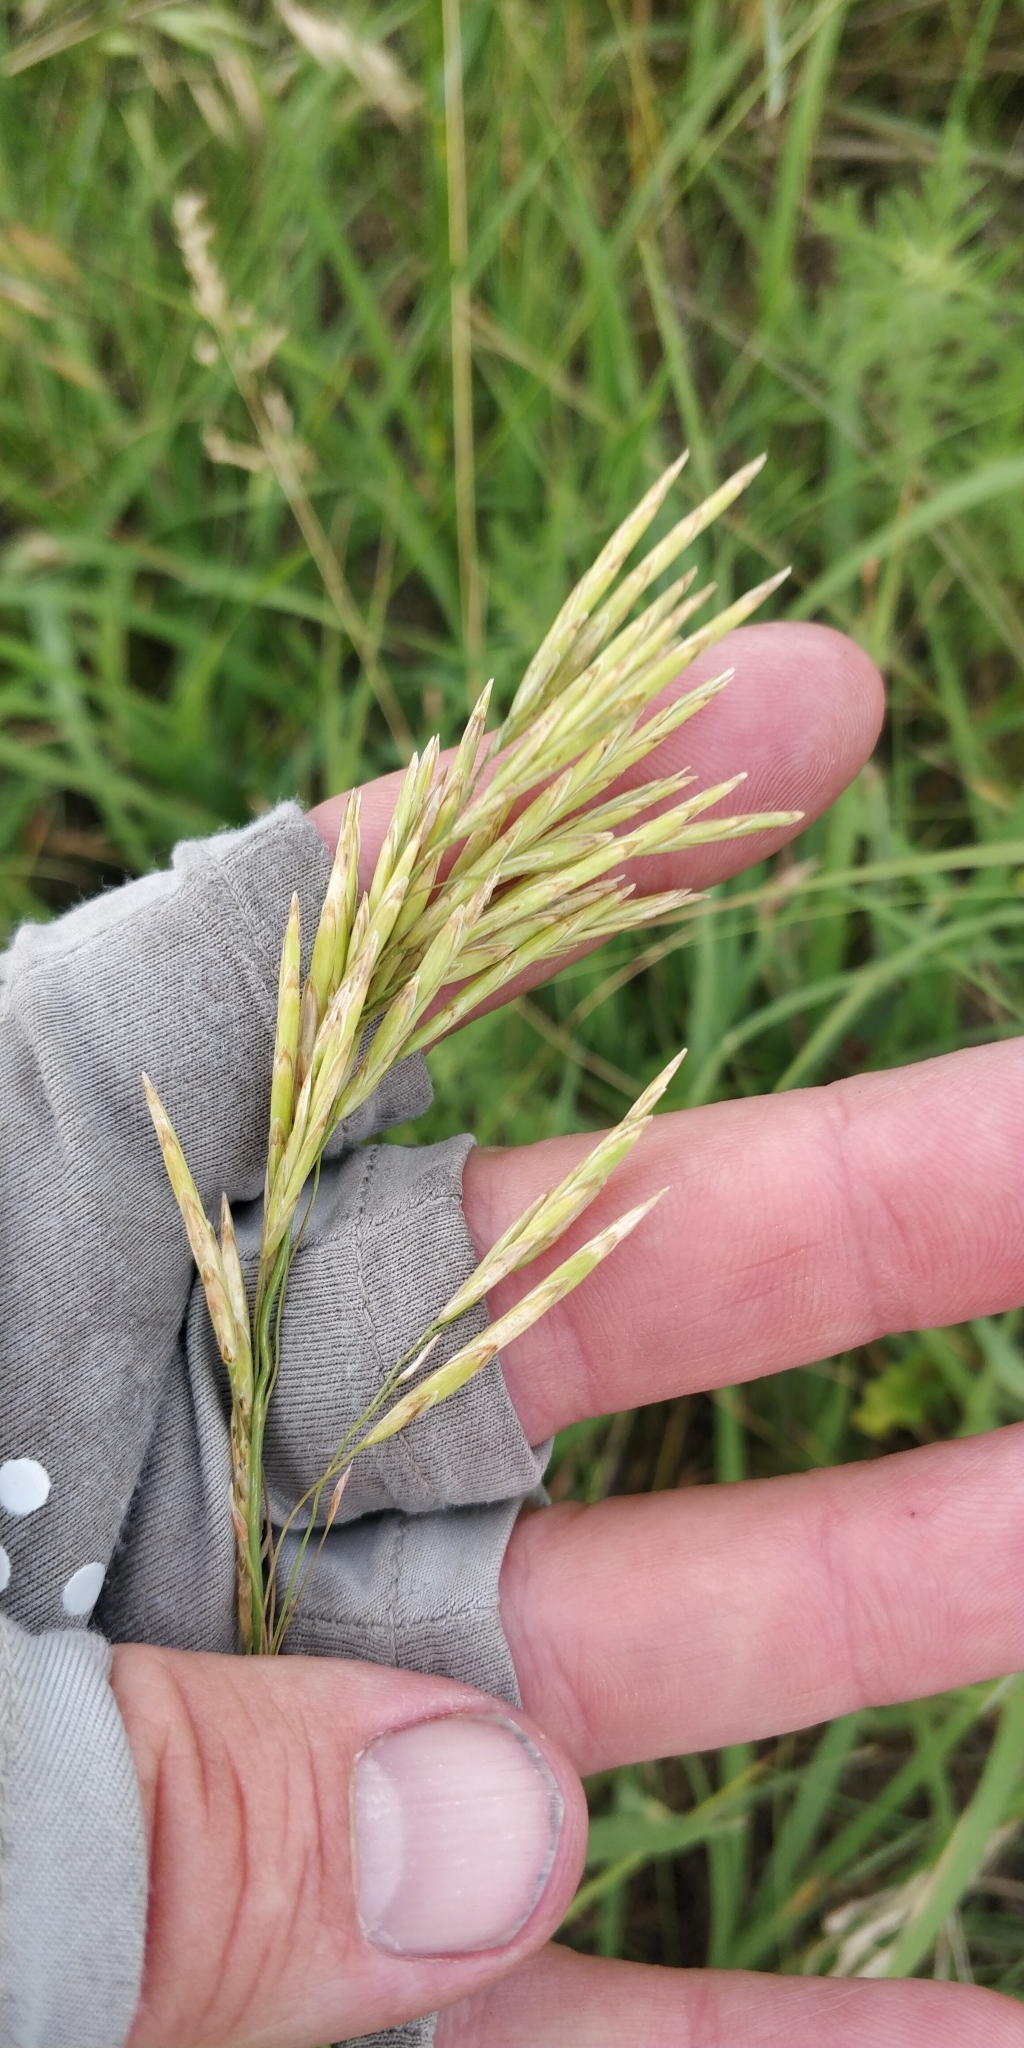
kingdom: Plantae
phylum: Tracheophyta
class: Liliopsida
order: Poales
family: Poaceae
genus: Bromus
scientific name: Bromus inermis
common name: Smooth brome
